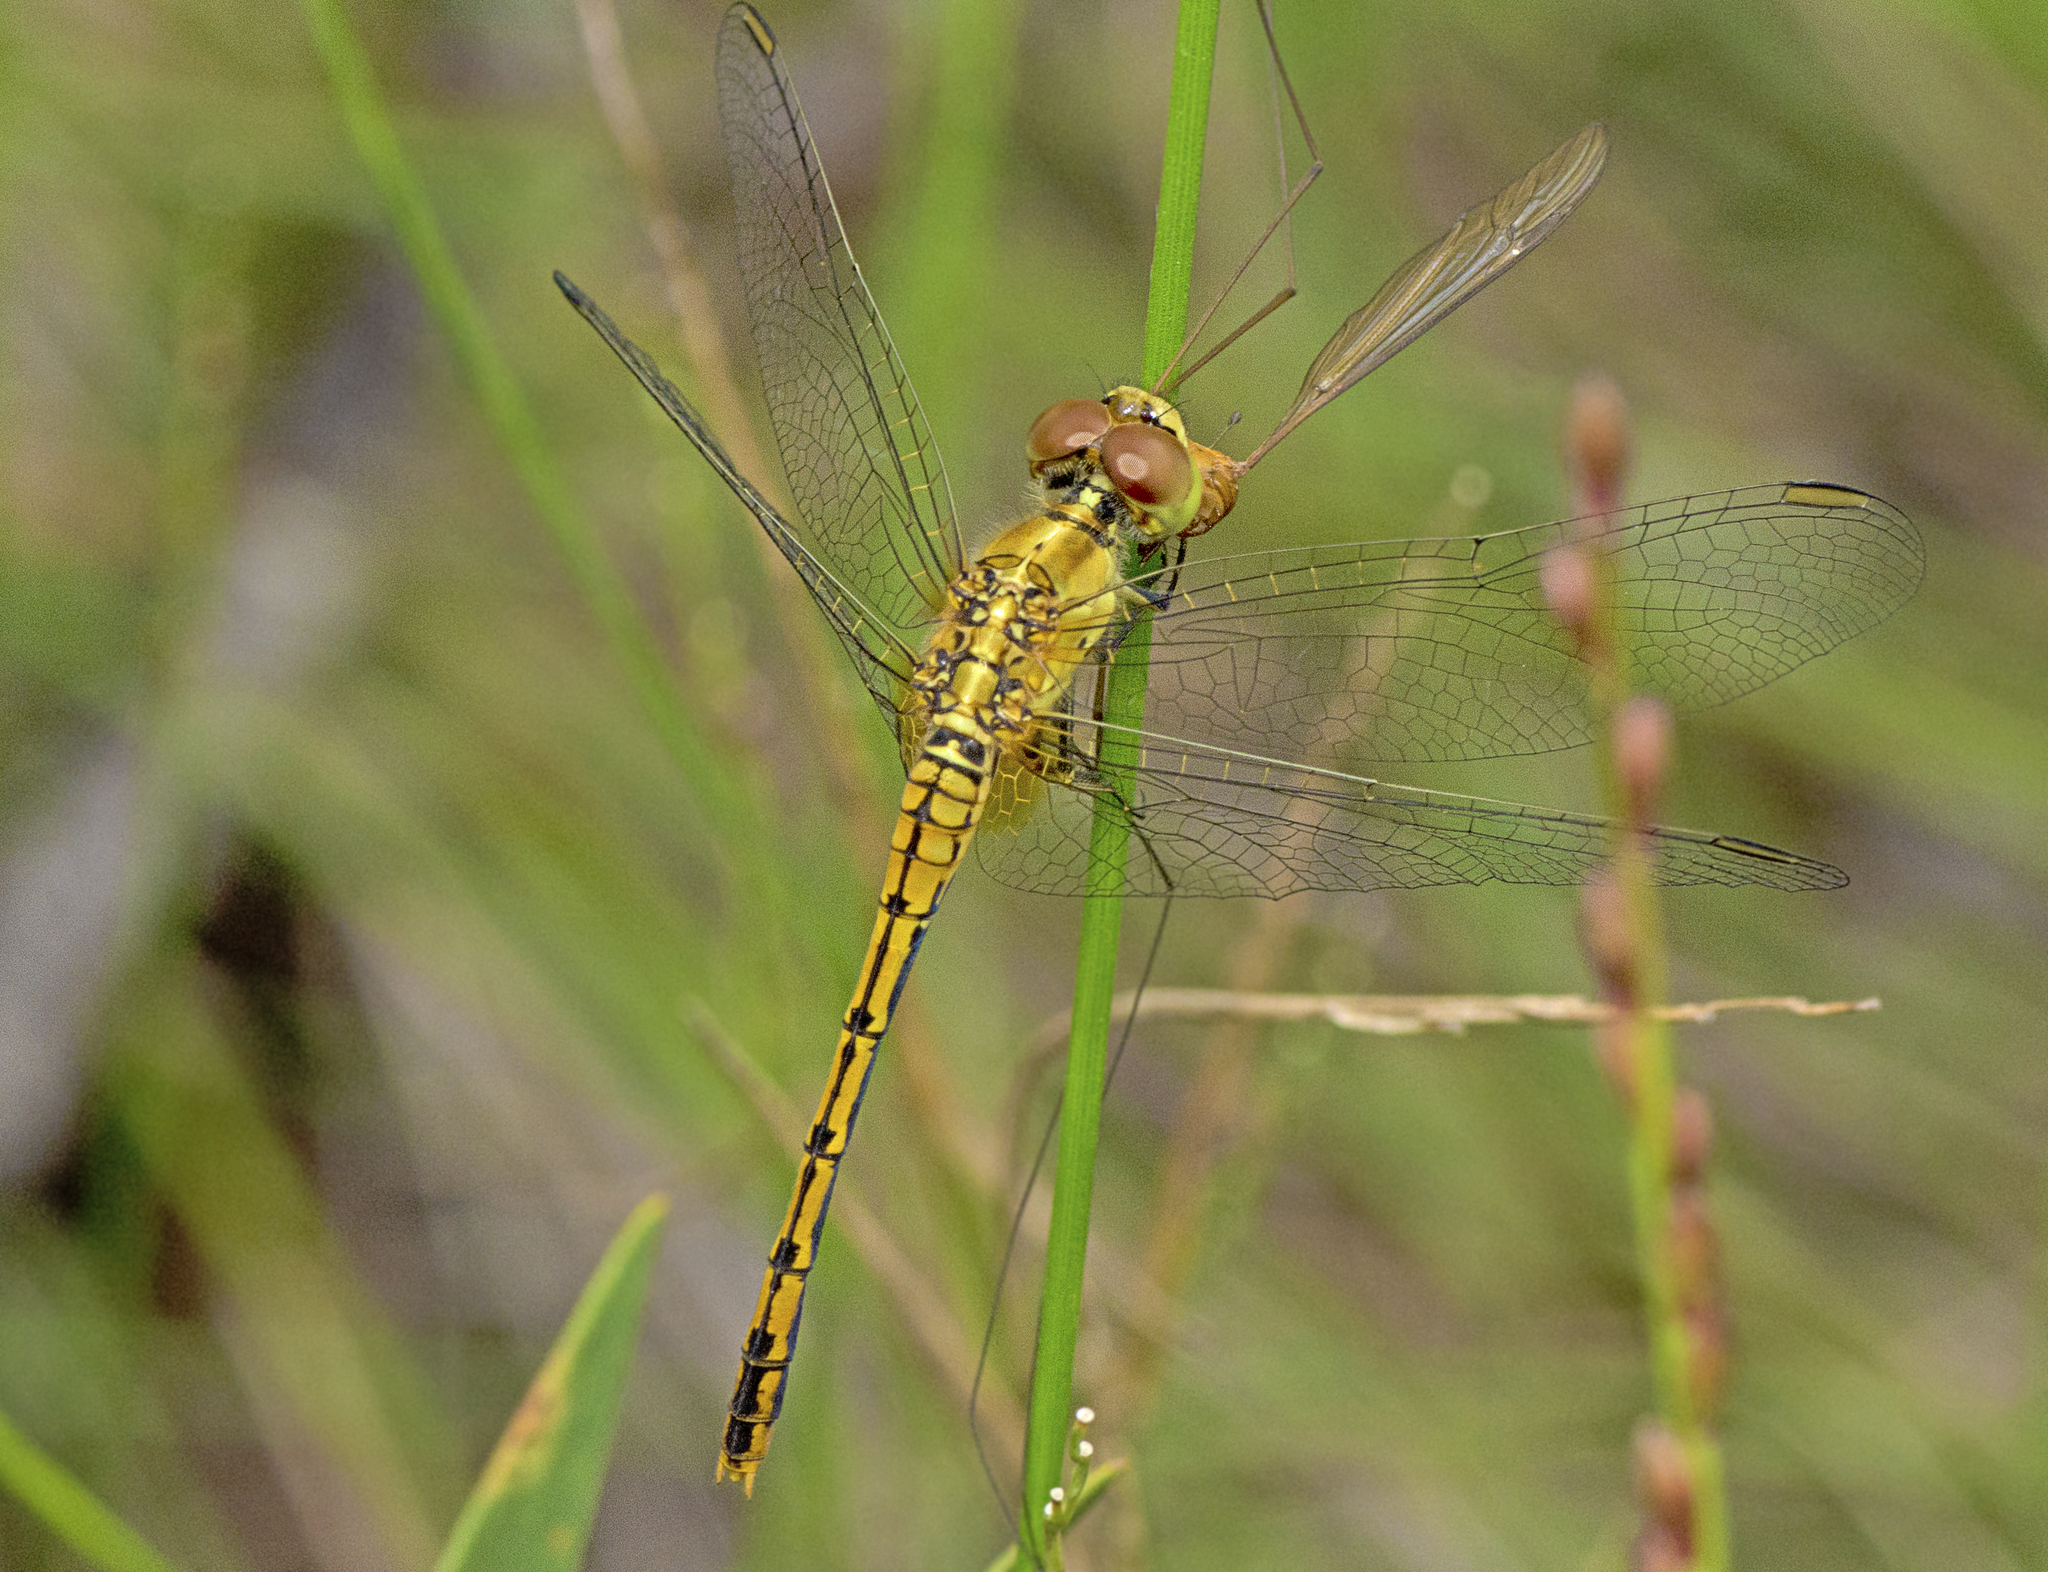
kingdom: Animalia
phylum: Arthropoda
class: Insecta
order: Odonata
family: Libellulidae
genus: Diplacodes
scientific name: Diplacodes bipunctata
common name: Red percher dragonfly
